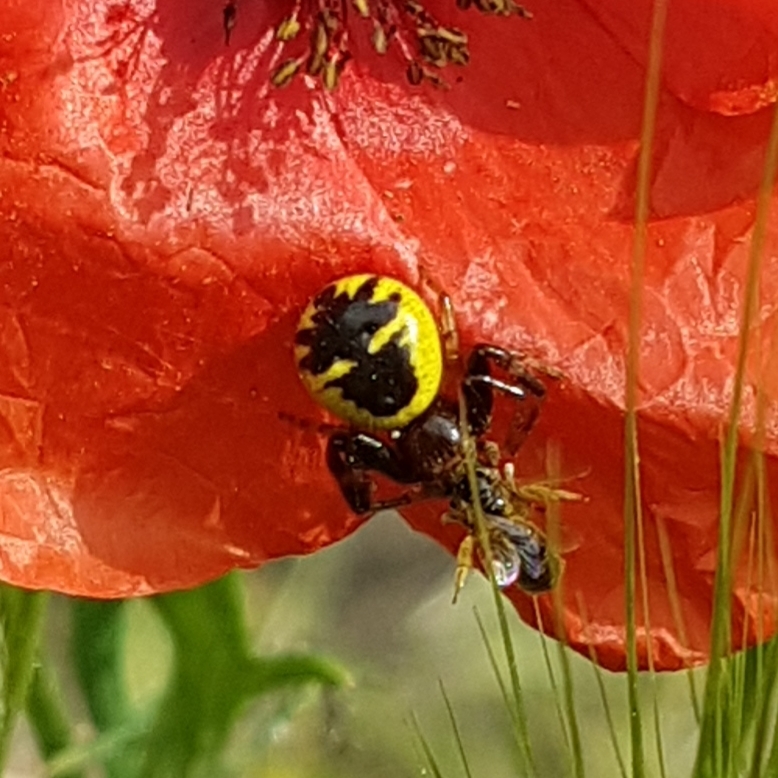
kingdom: Animalia
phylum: Arthropoda
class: Arachnida
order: Araneae
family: Thomisidae
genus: Synema
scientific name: Synema globosum
